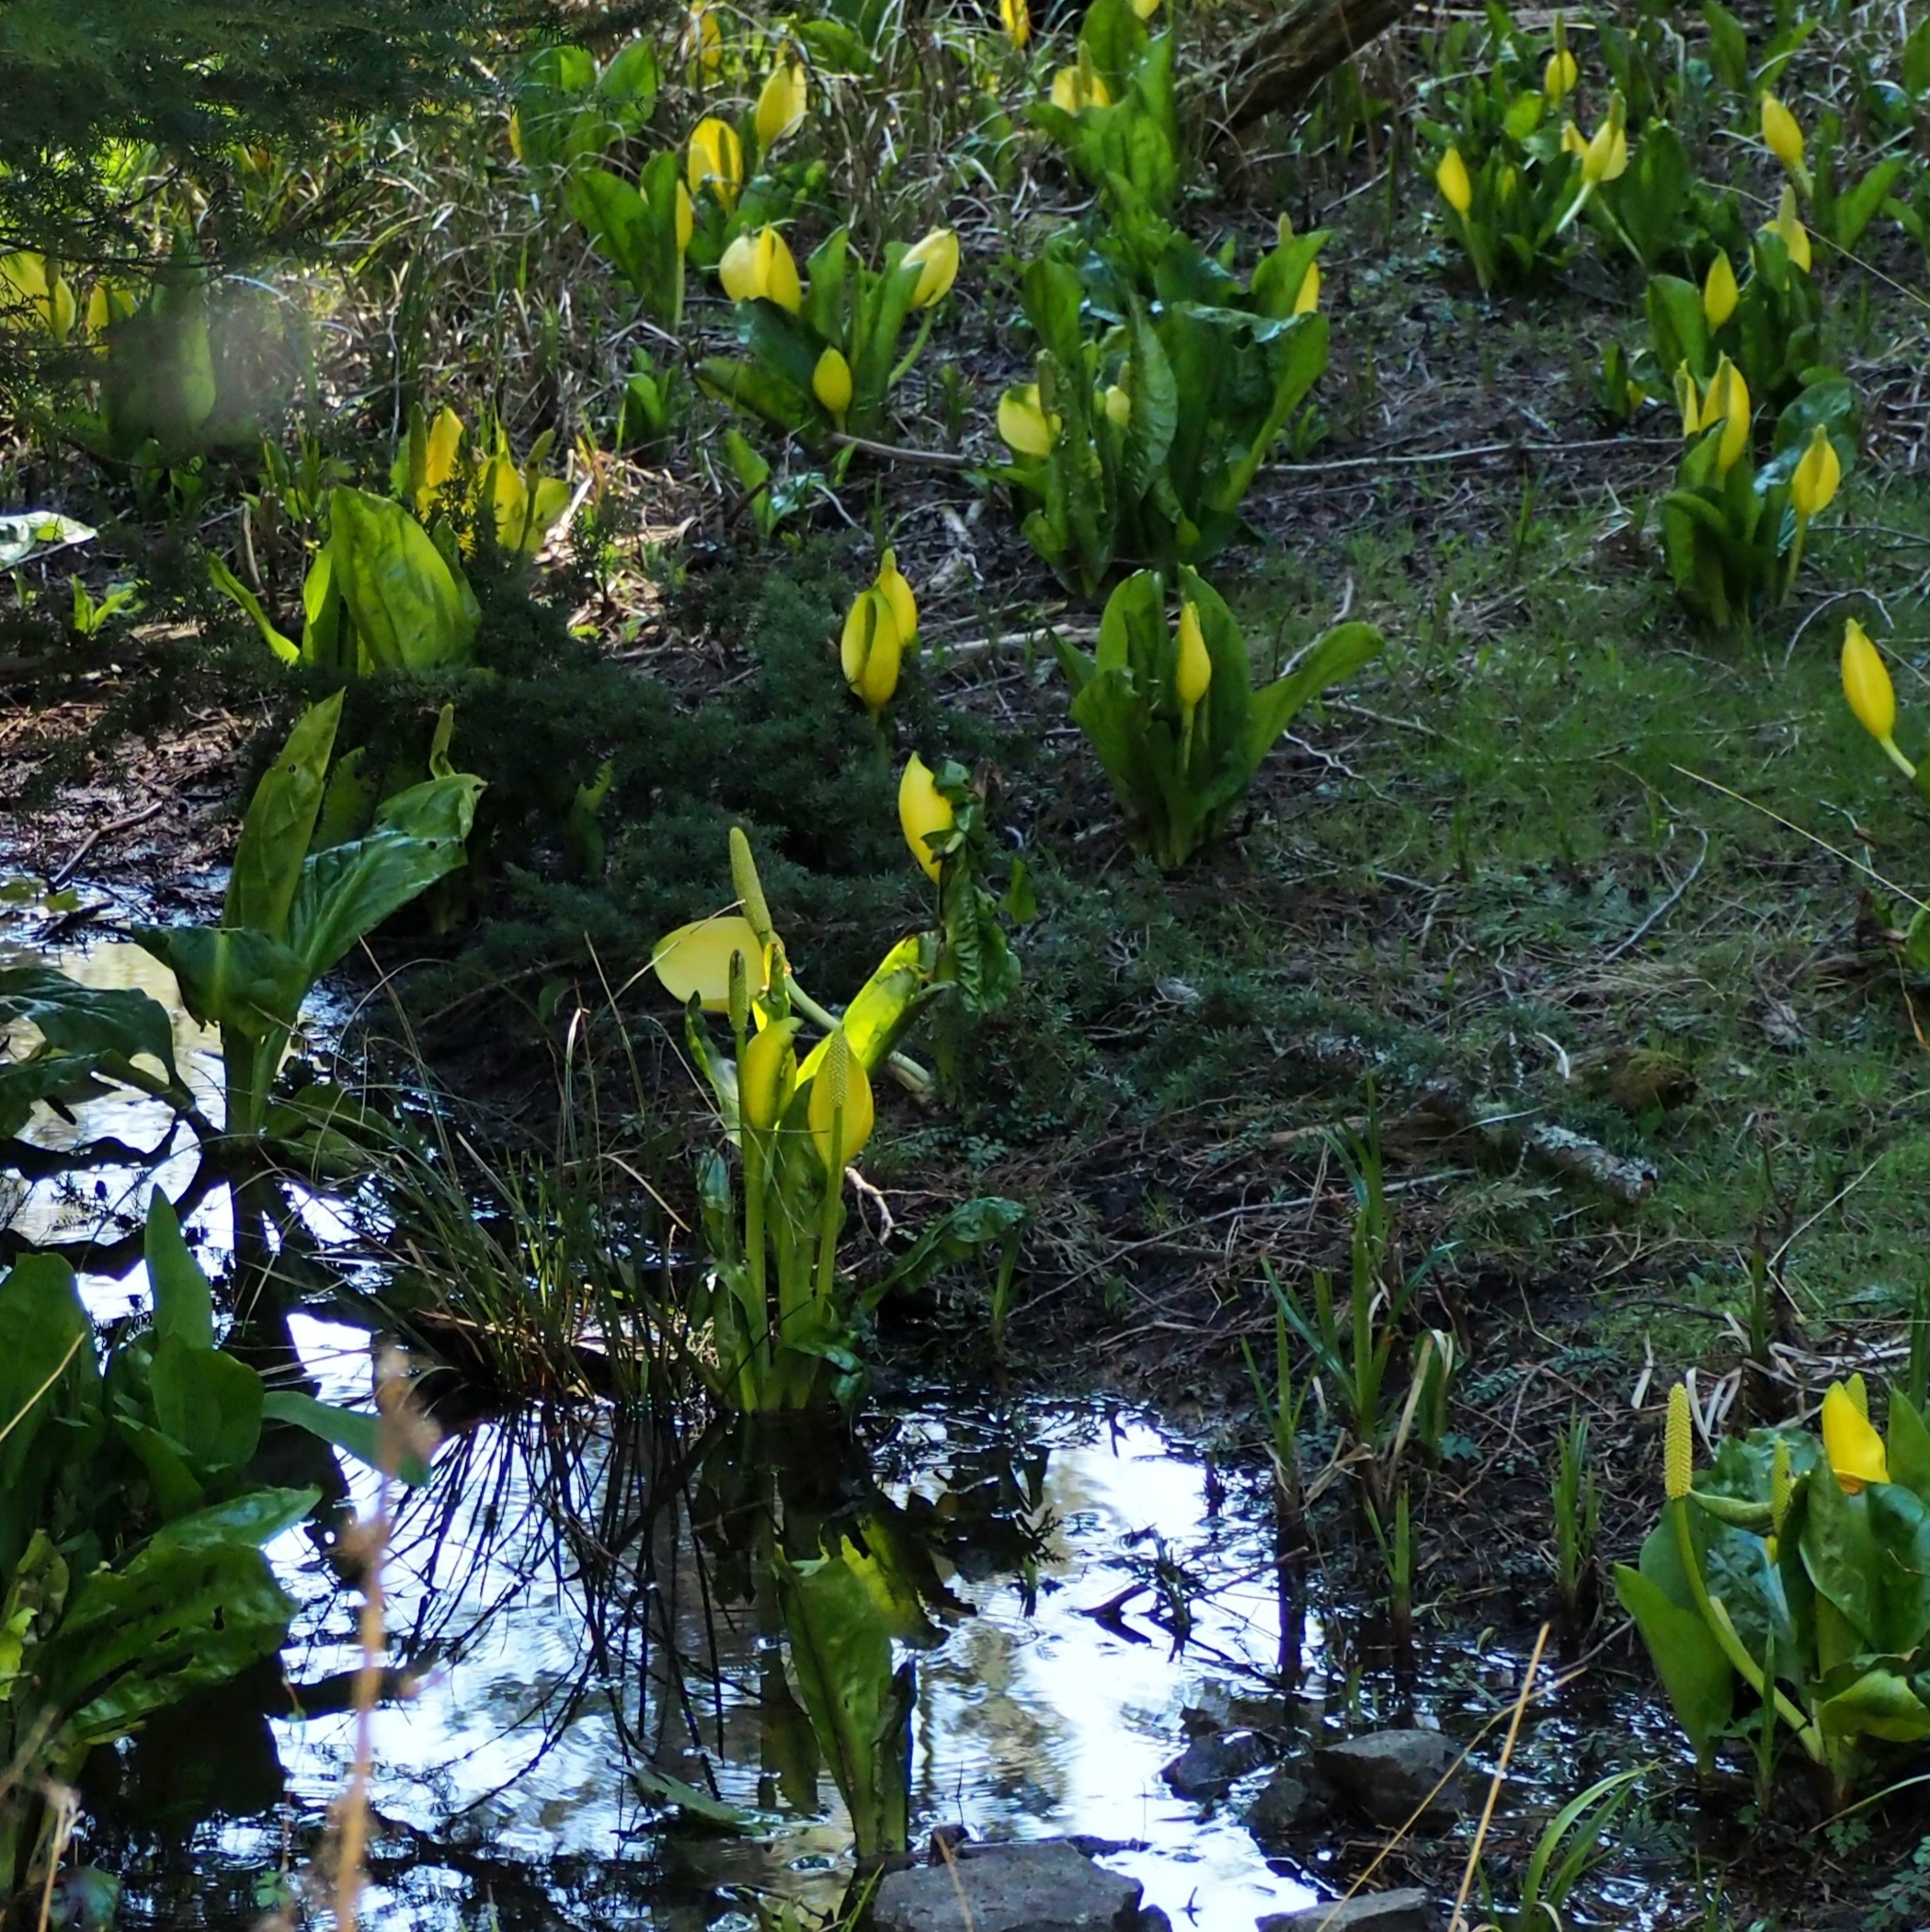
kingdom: Plantae
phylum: Tracheophyta
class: Liliopsida
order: Alismatales
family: Araceae
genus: Lysichiton
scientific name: Lysichiton americanus
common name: American skunk cabbage
